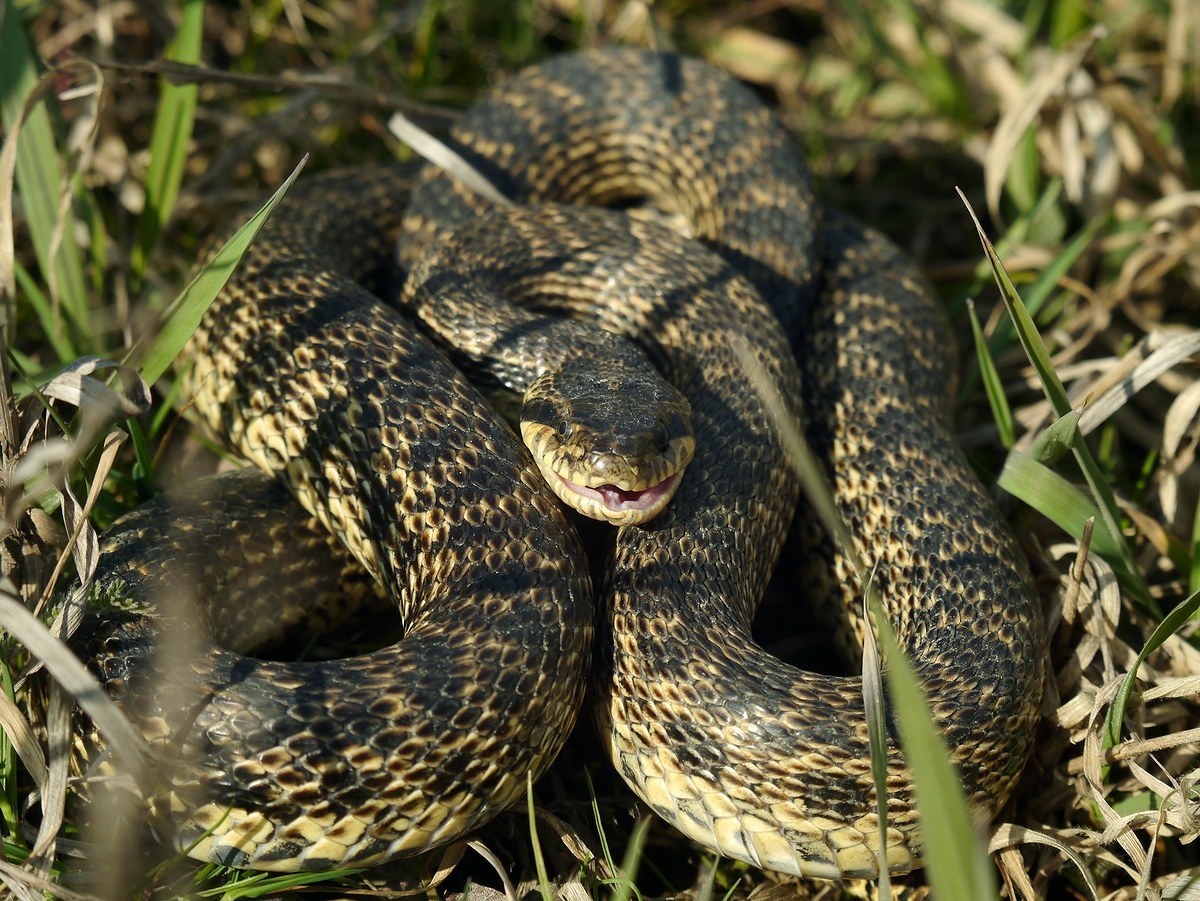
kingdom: Animalia
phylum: Chordata
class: Squamata
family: Colubridae
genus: Elaphe
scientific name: Elaphe sauromates
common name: Eastern four-lined ratsnake
